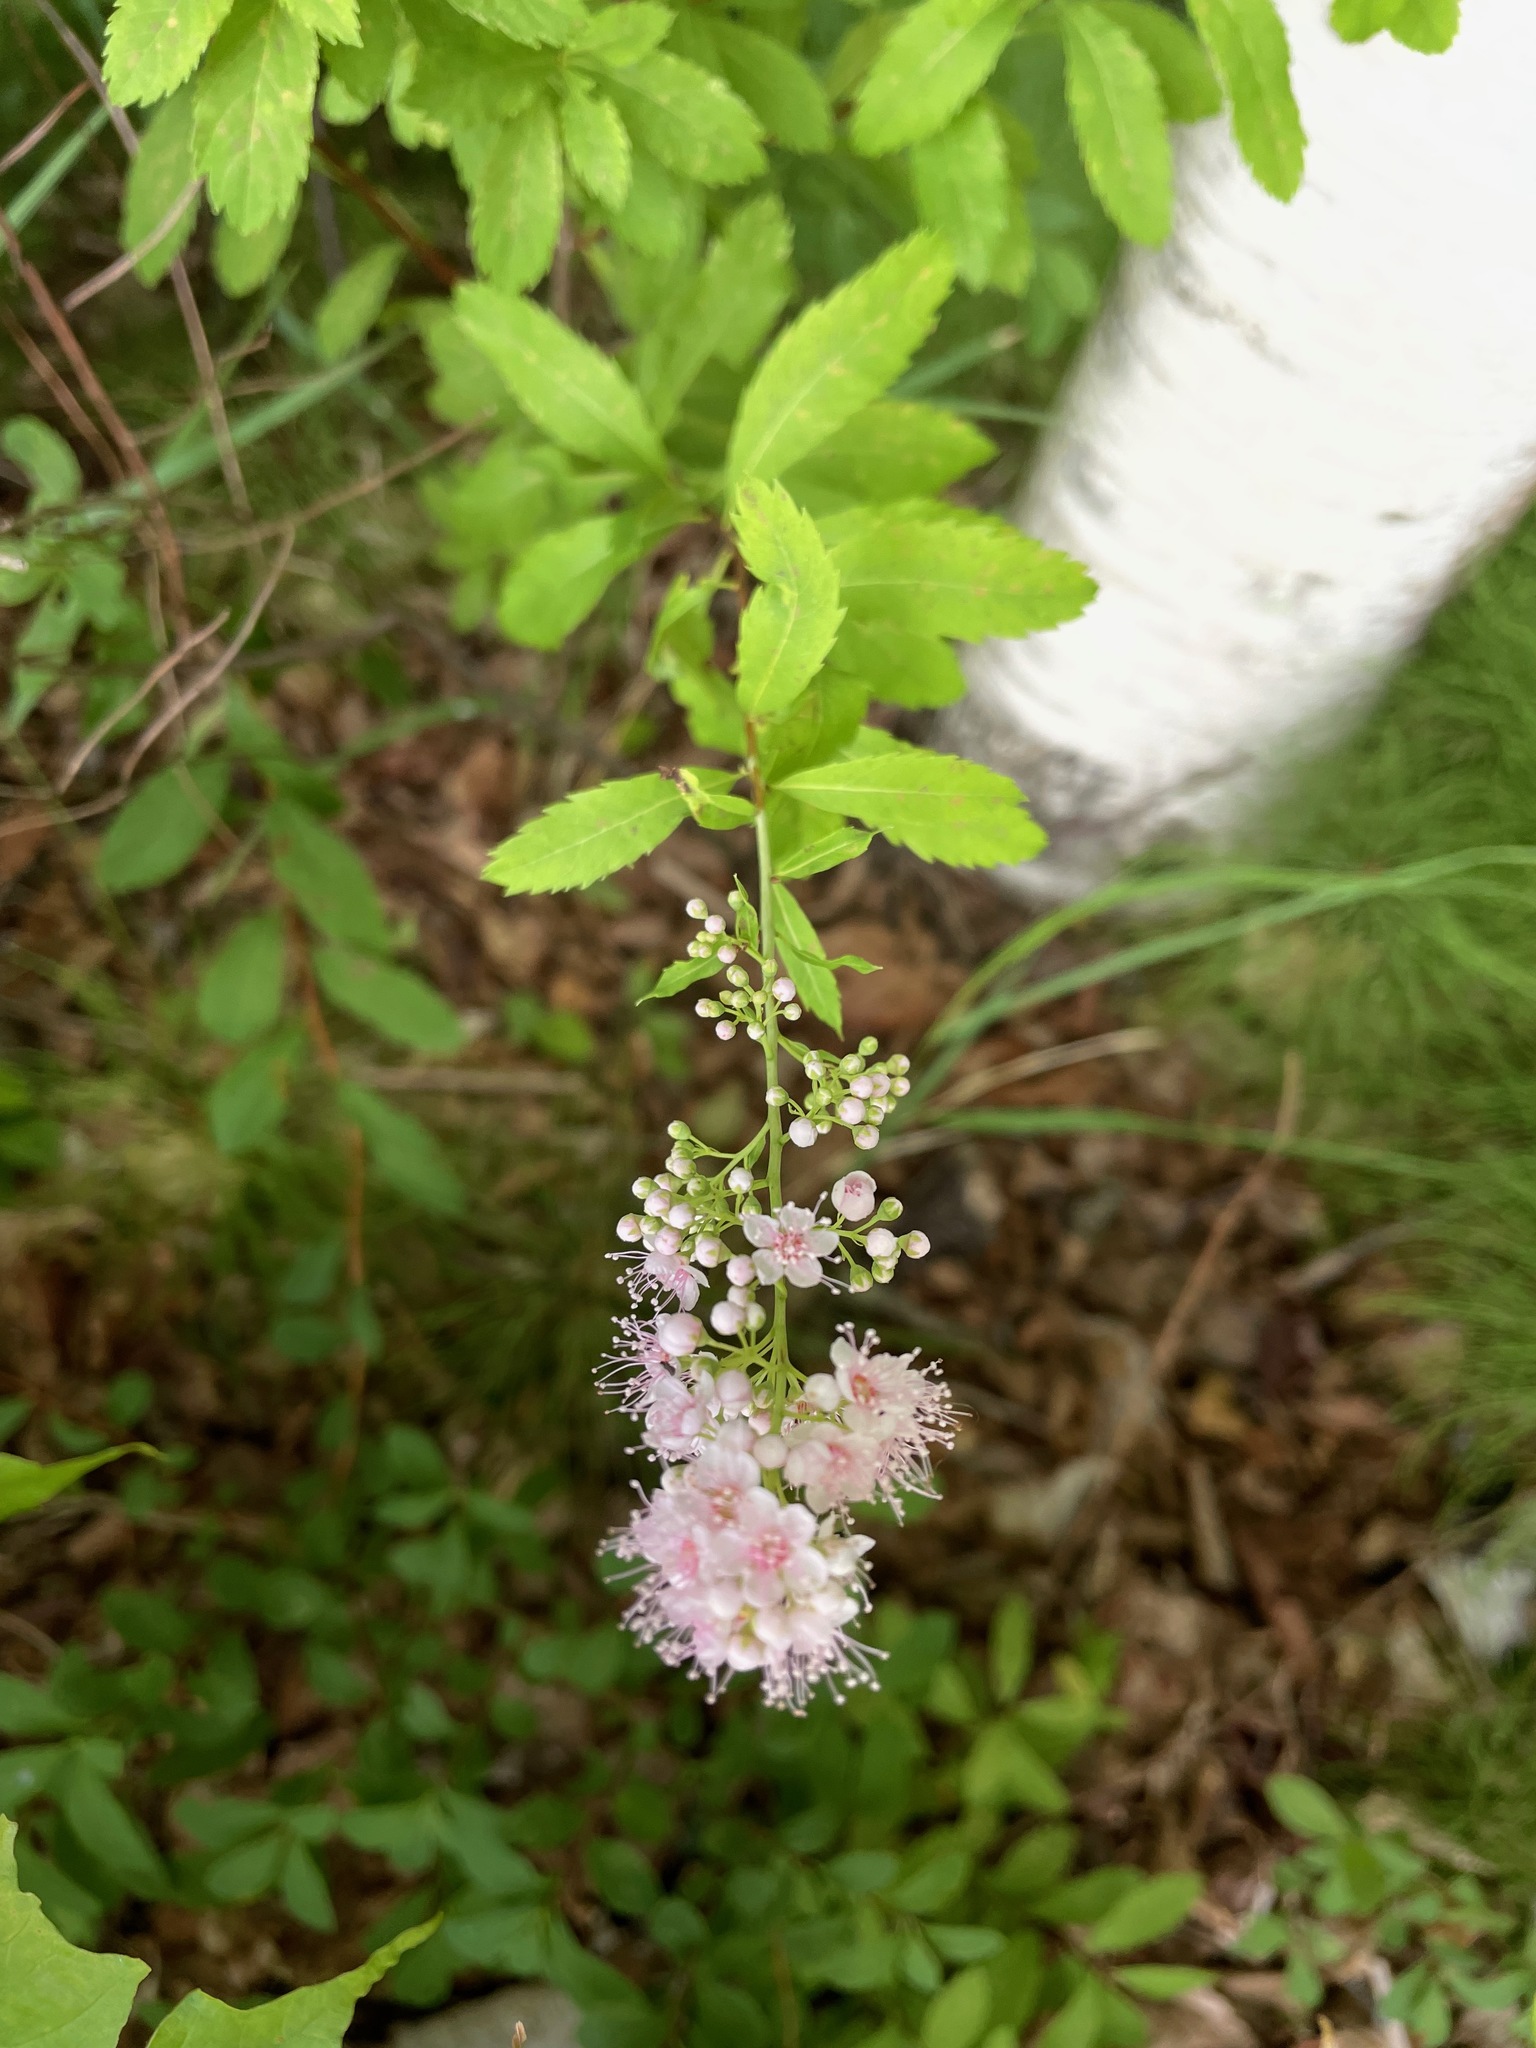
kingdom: Plantae
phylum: Tracheophyta
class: Magnoliopsida
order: Rosales
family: Rosaceae
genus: Spiraea
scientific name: Spiraea alba
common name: Pale bridewort
